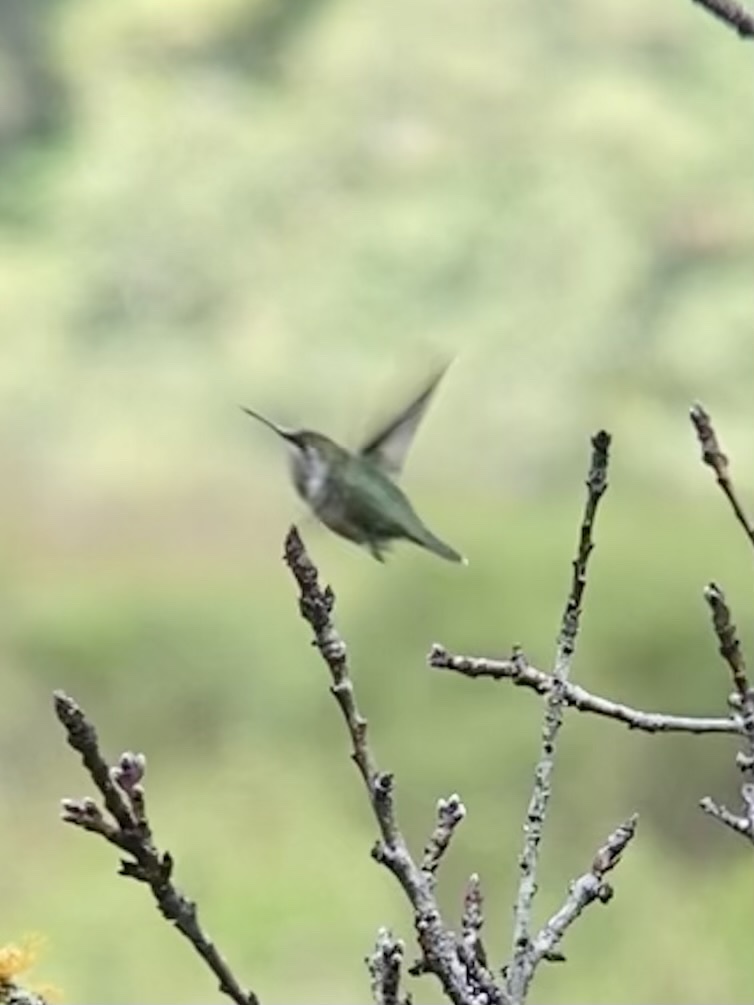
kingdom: Animalia
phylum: Chordata
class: Aves
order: Apodiformes
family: Trochilidae
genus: Selasphorus
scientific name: Selasphorus heloisa
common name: Bumblebee hummingbird
